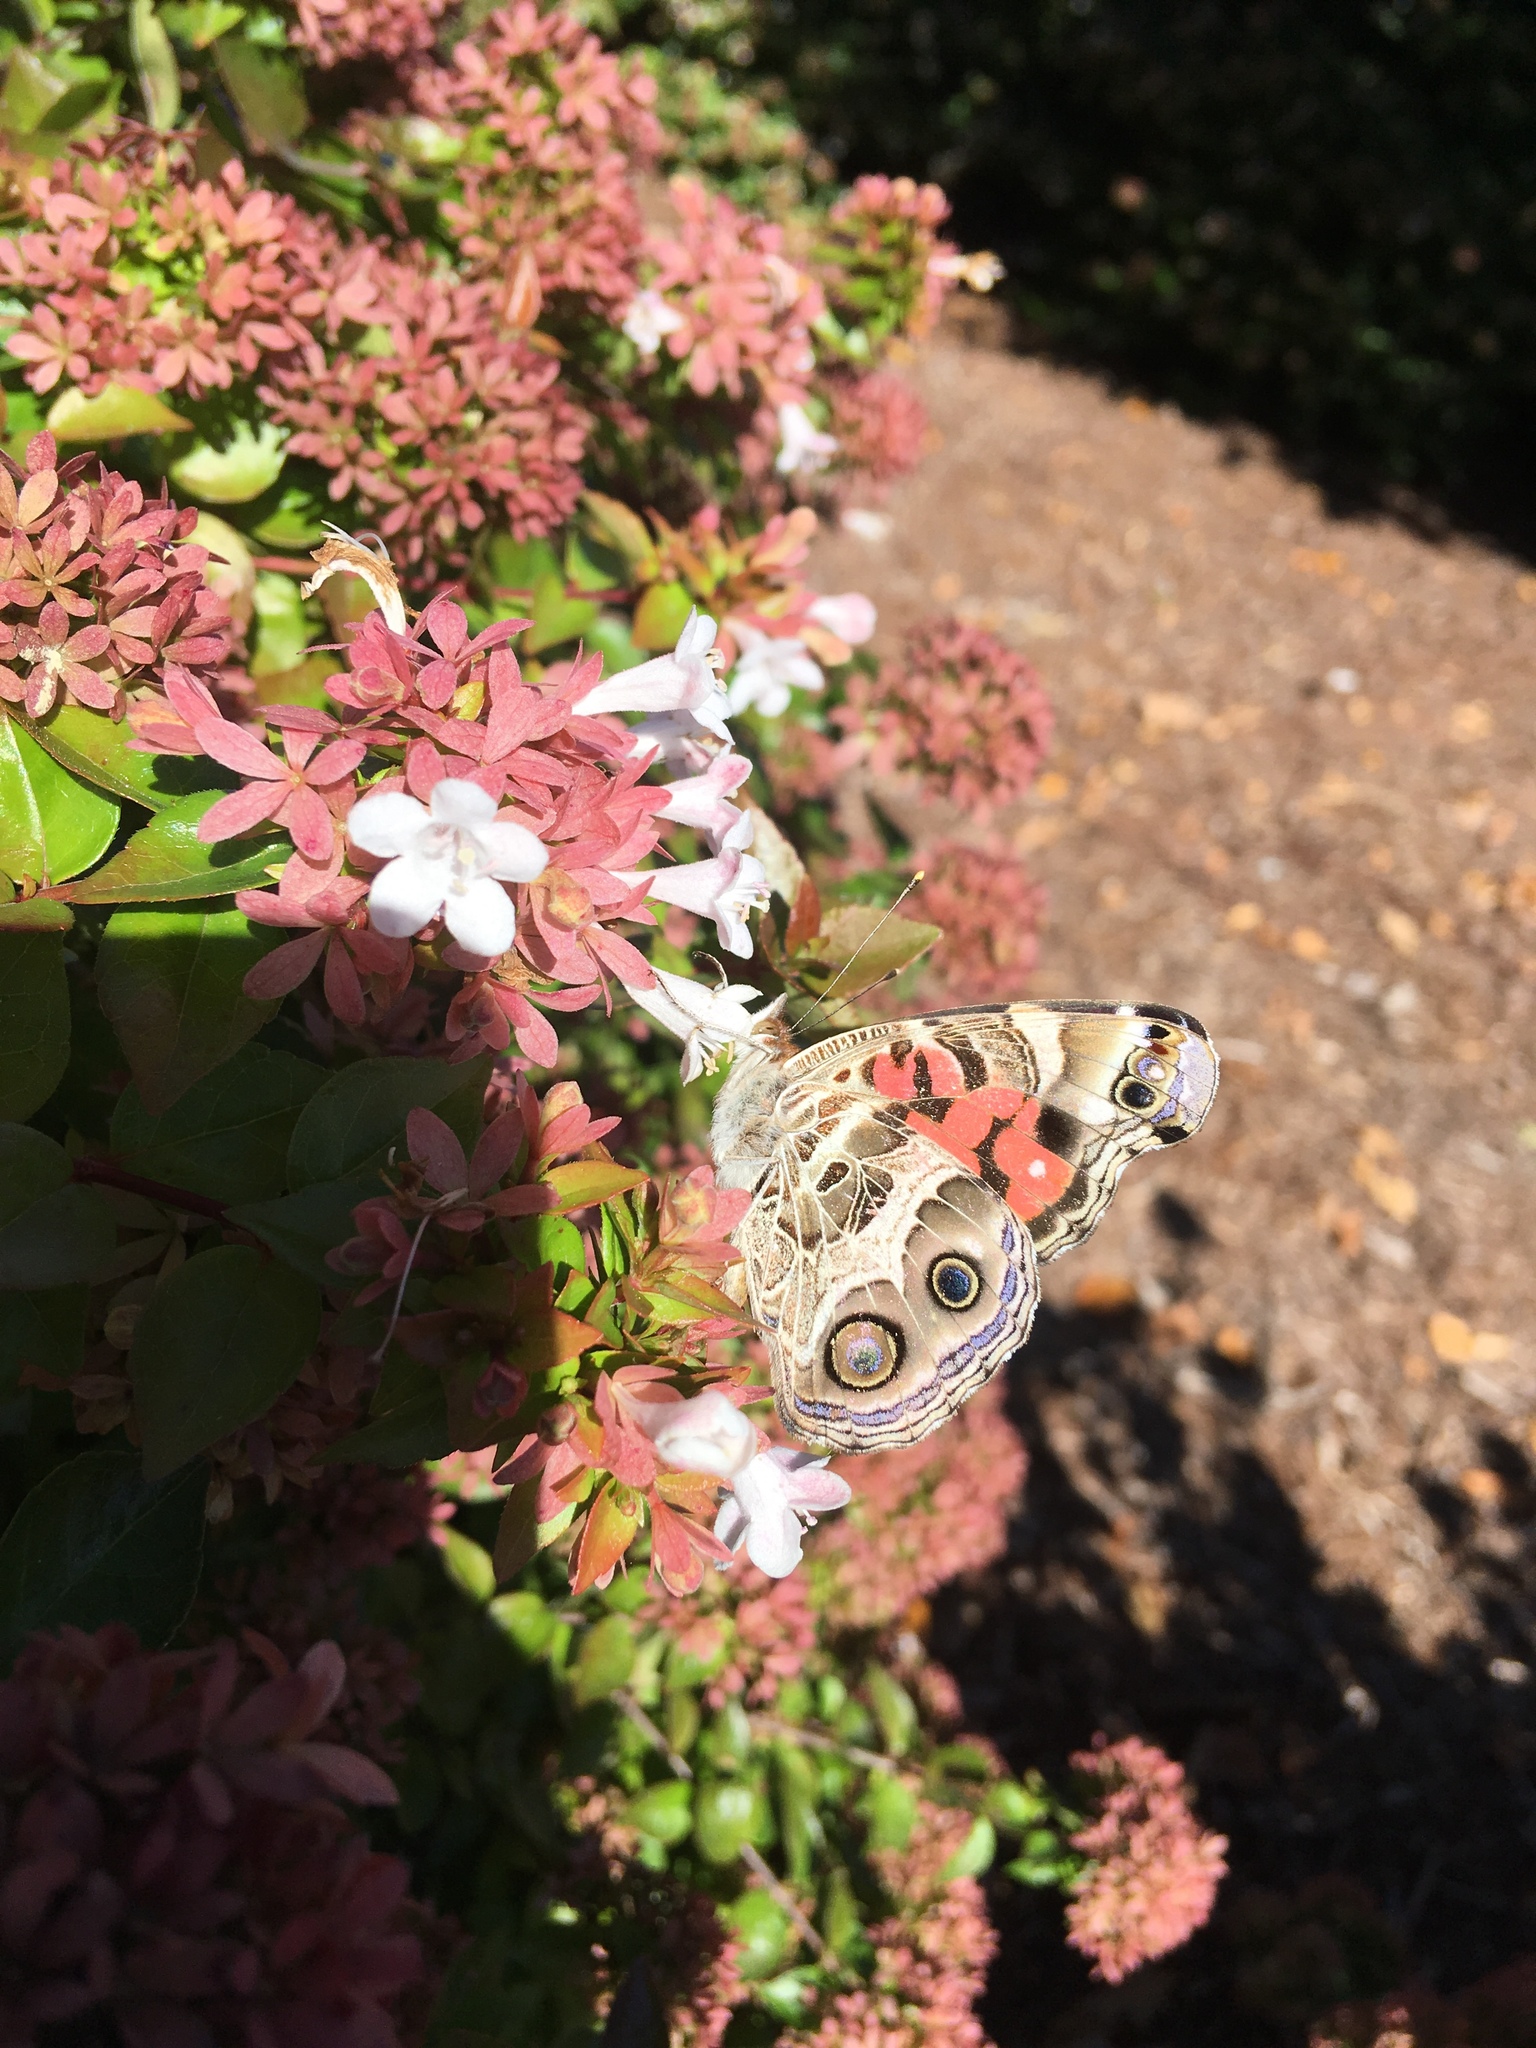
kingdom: Animalia
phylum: Arthropoda
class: Insecta
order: Lepidoptera
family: Nymphalidae
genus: Vanessa
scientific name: Vanessa virginiensis
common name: American lady
